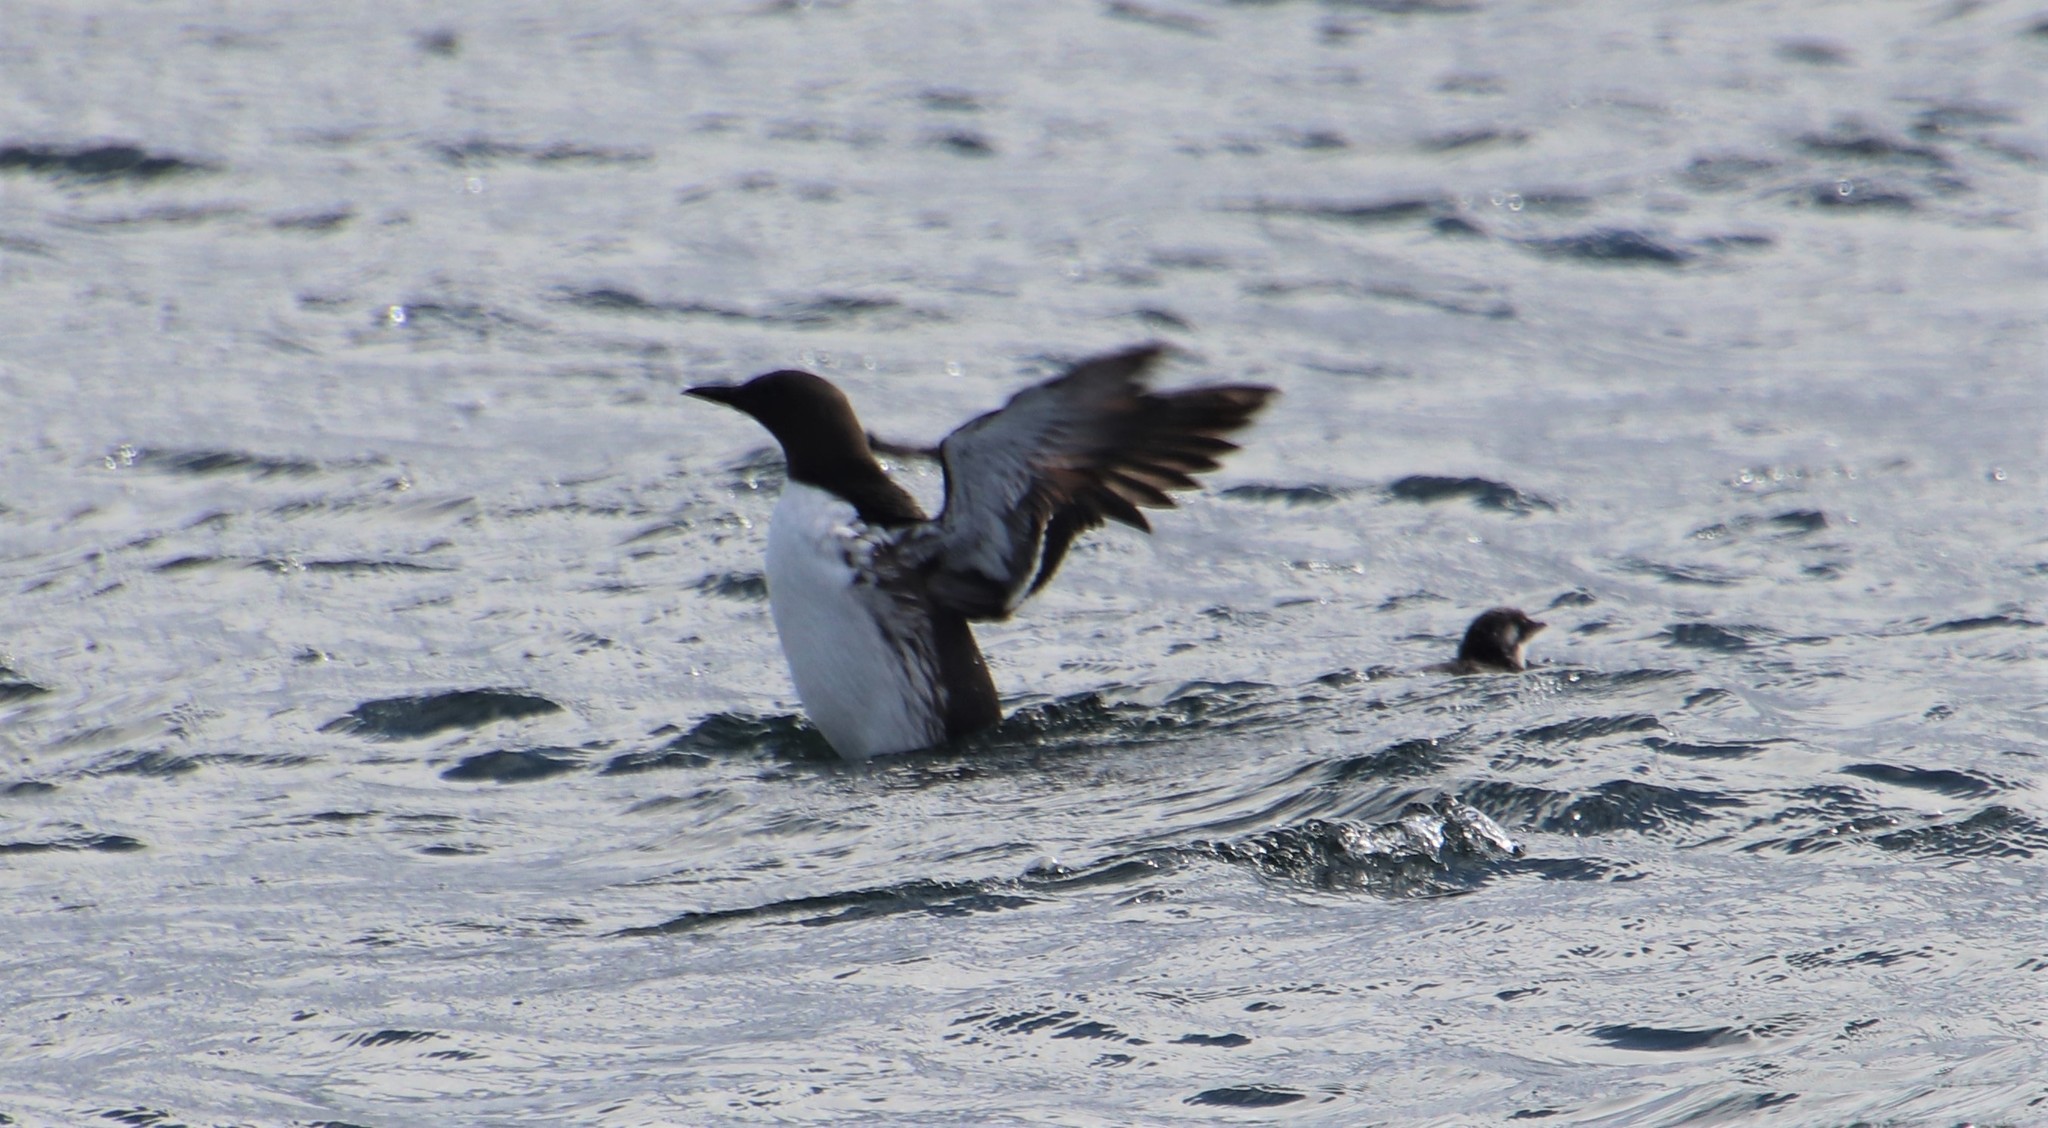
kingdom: Animalia
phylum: Chordata
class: Aves
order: Charadriiformes
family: Alcidae
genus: Uria
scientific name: Uria aalge
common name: Common murre
